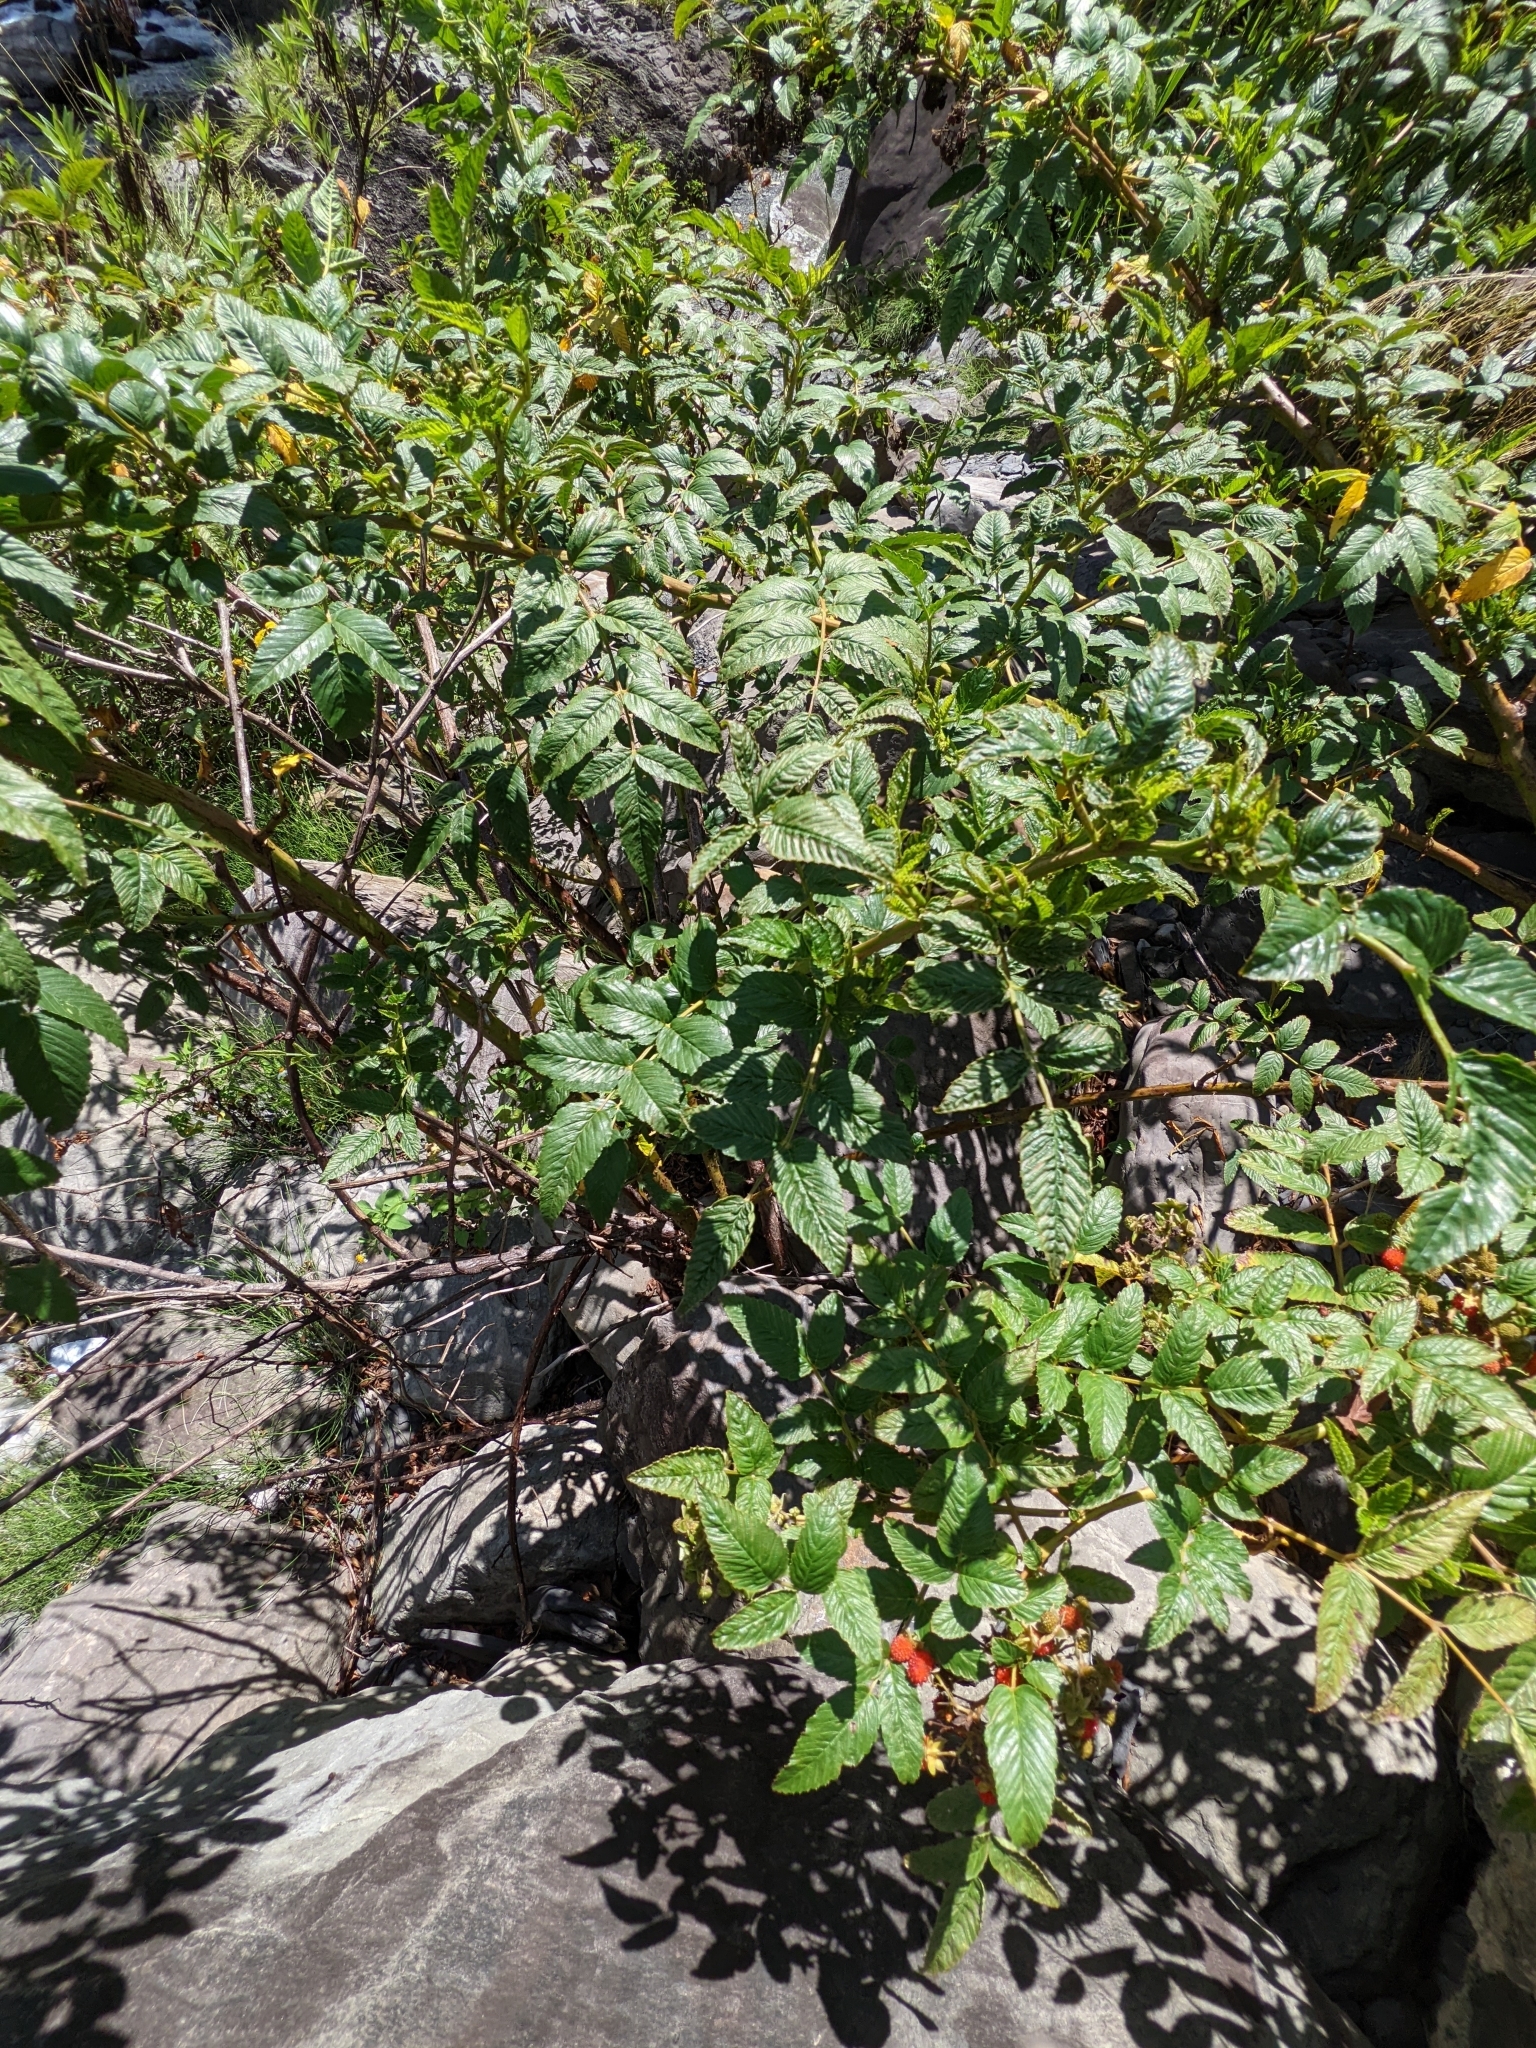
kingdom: Plantae
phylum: Tracheophyta
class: Magnoliopsida
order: Rosales
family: Rosaceae
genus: Rubus
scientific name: Rubus fraxinifolius
